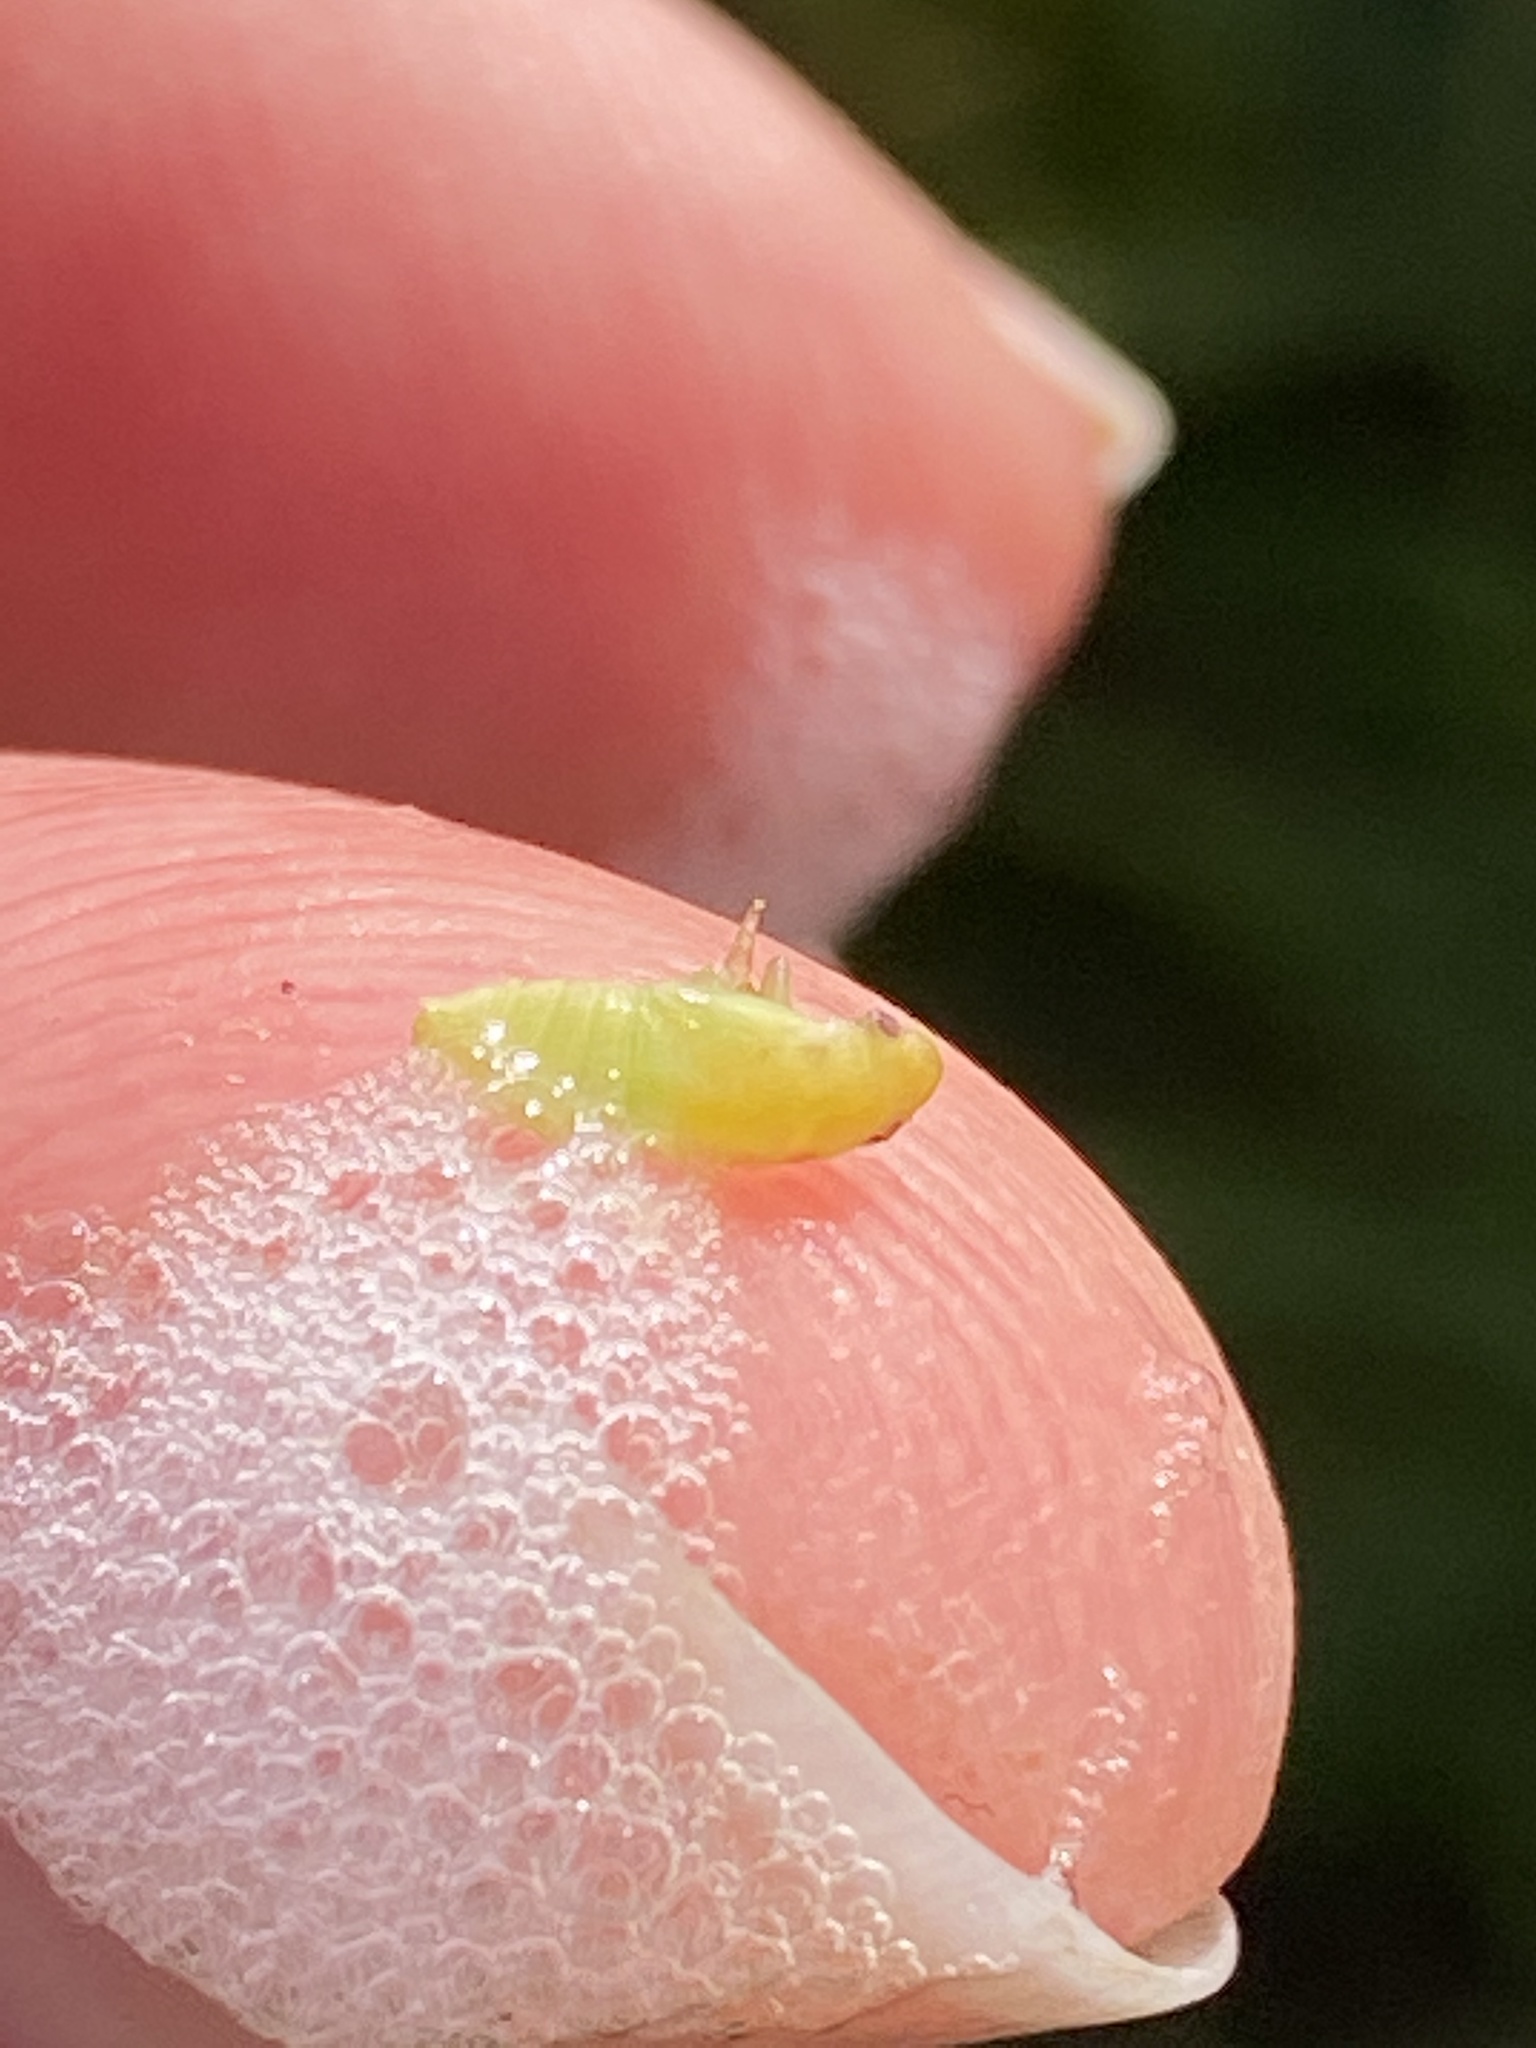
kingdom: Animalia
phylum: Arthropoda
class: Insecta
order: Hemiptera
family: Aphrophoridae
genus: Philaenus
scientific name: Philaenus spumarius
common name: Meadow spittlebug
